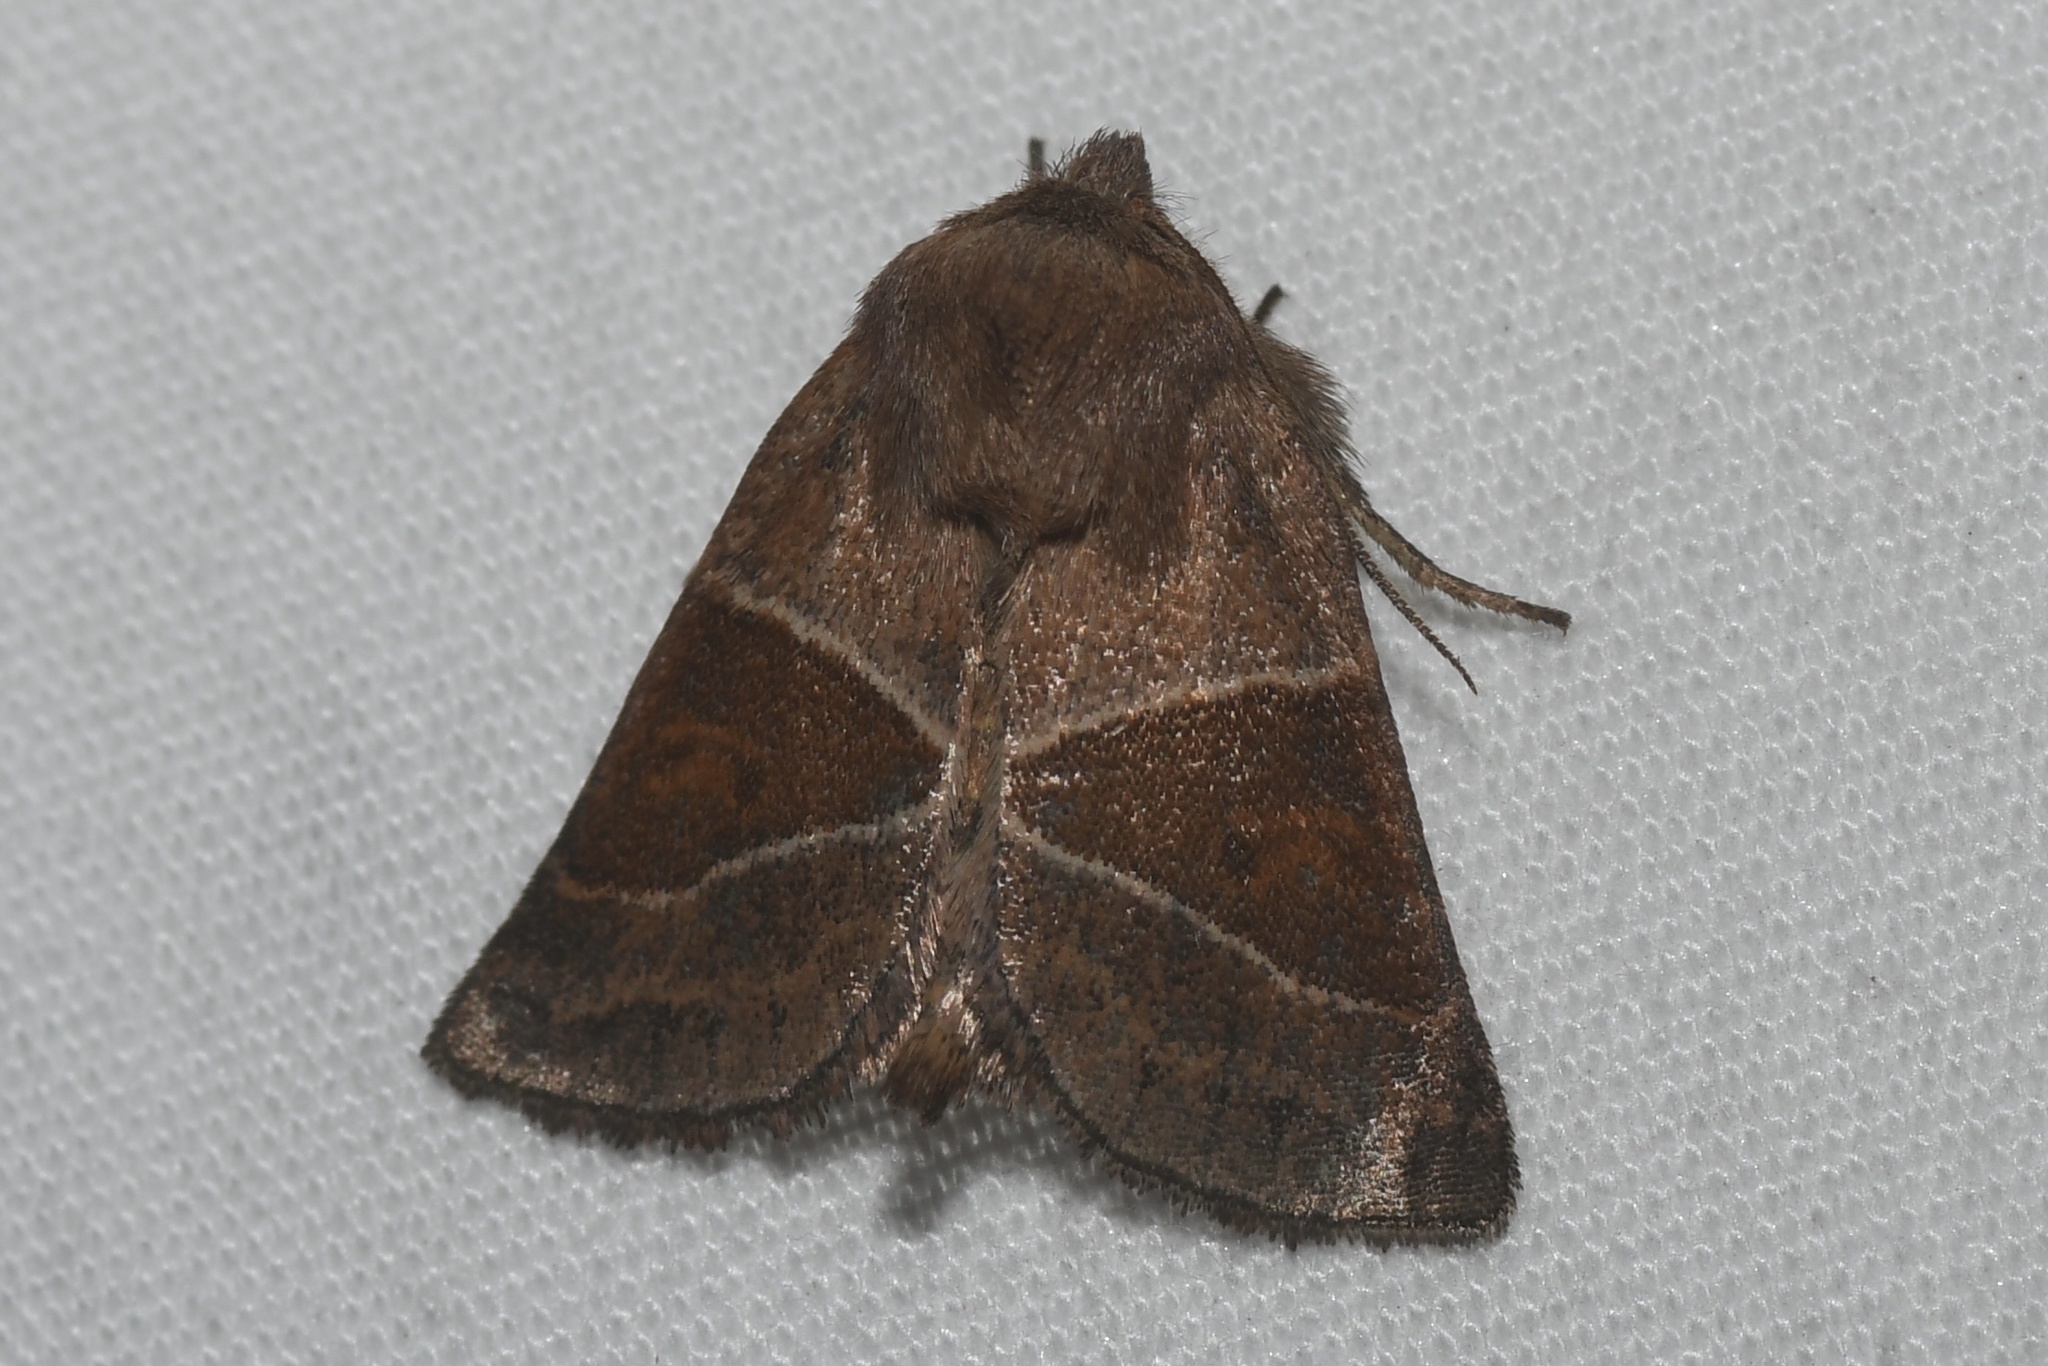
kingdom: Animalia
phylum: Arthropoda
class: Insecta
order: Lepidoptera
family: Noctuidae
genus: Lemmeria
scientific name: Lemmeria digitalis
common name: Fingered lemmeria moth
